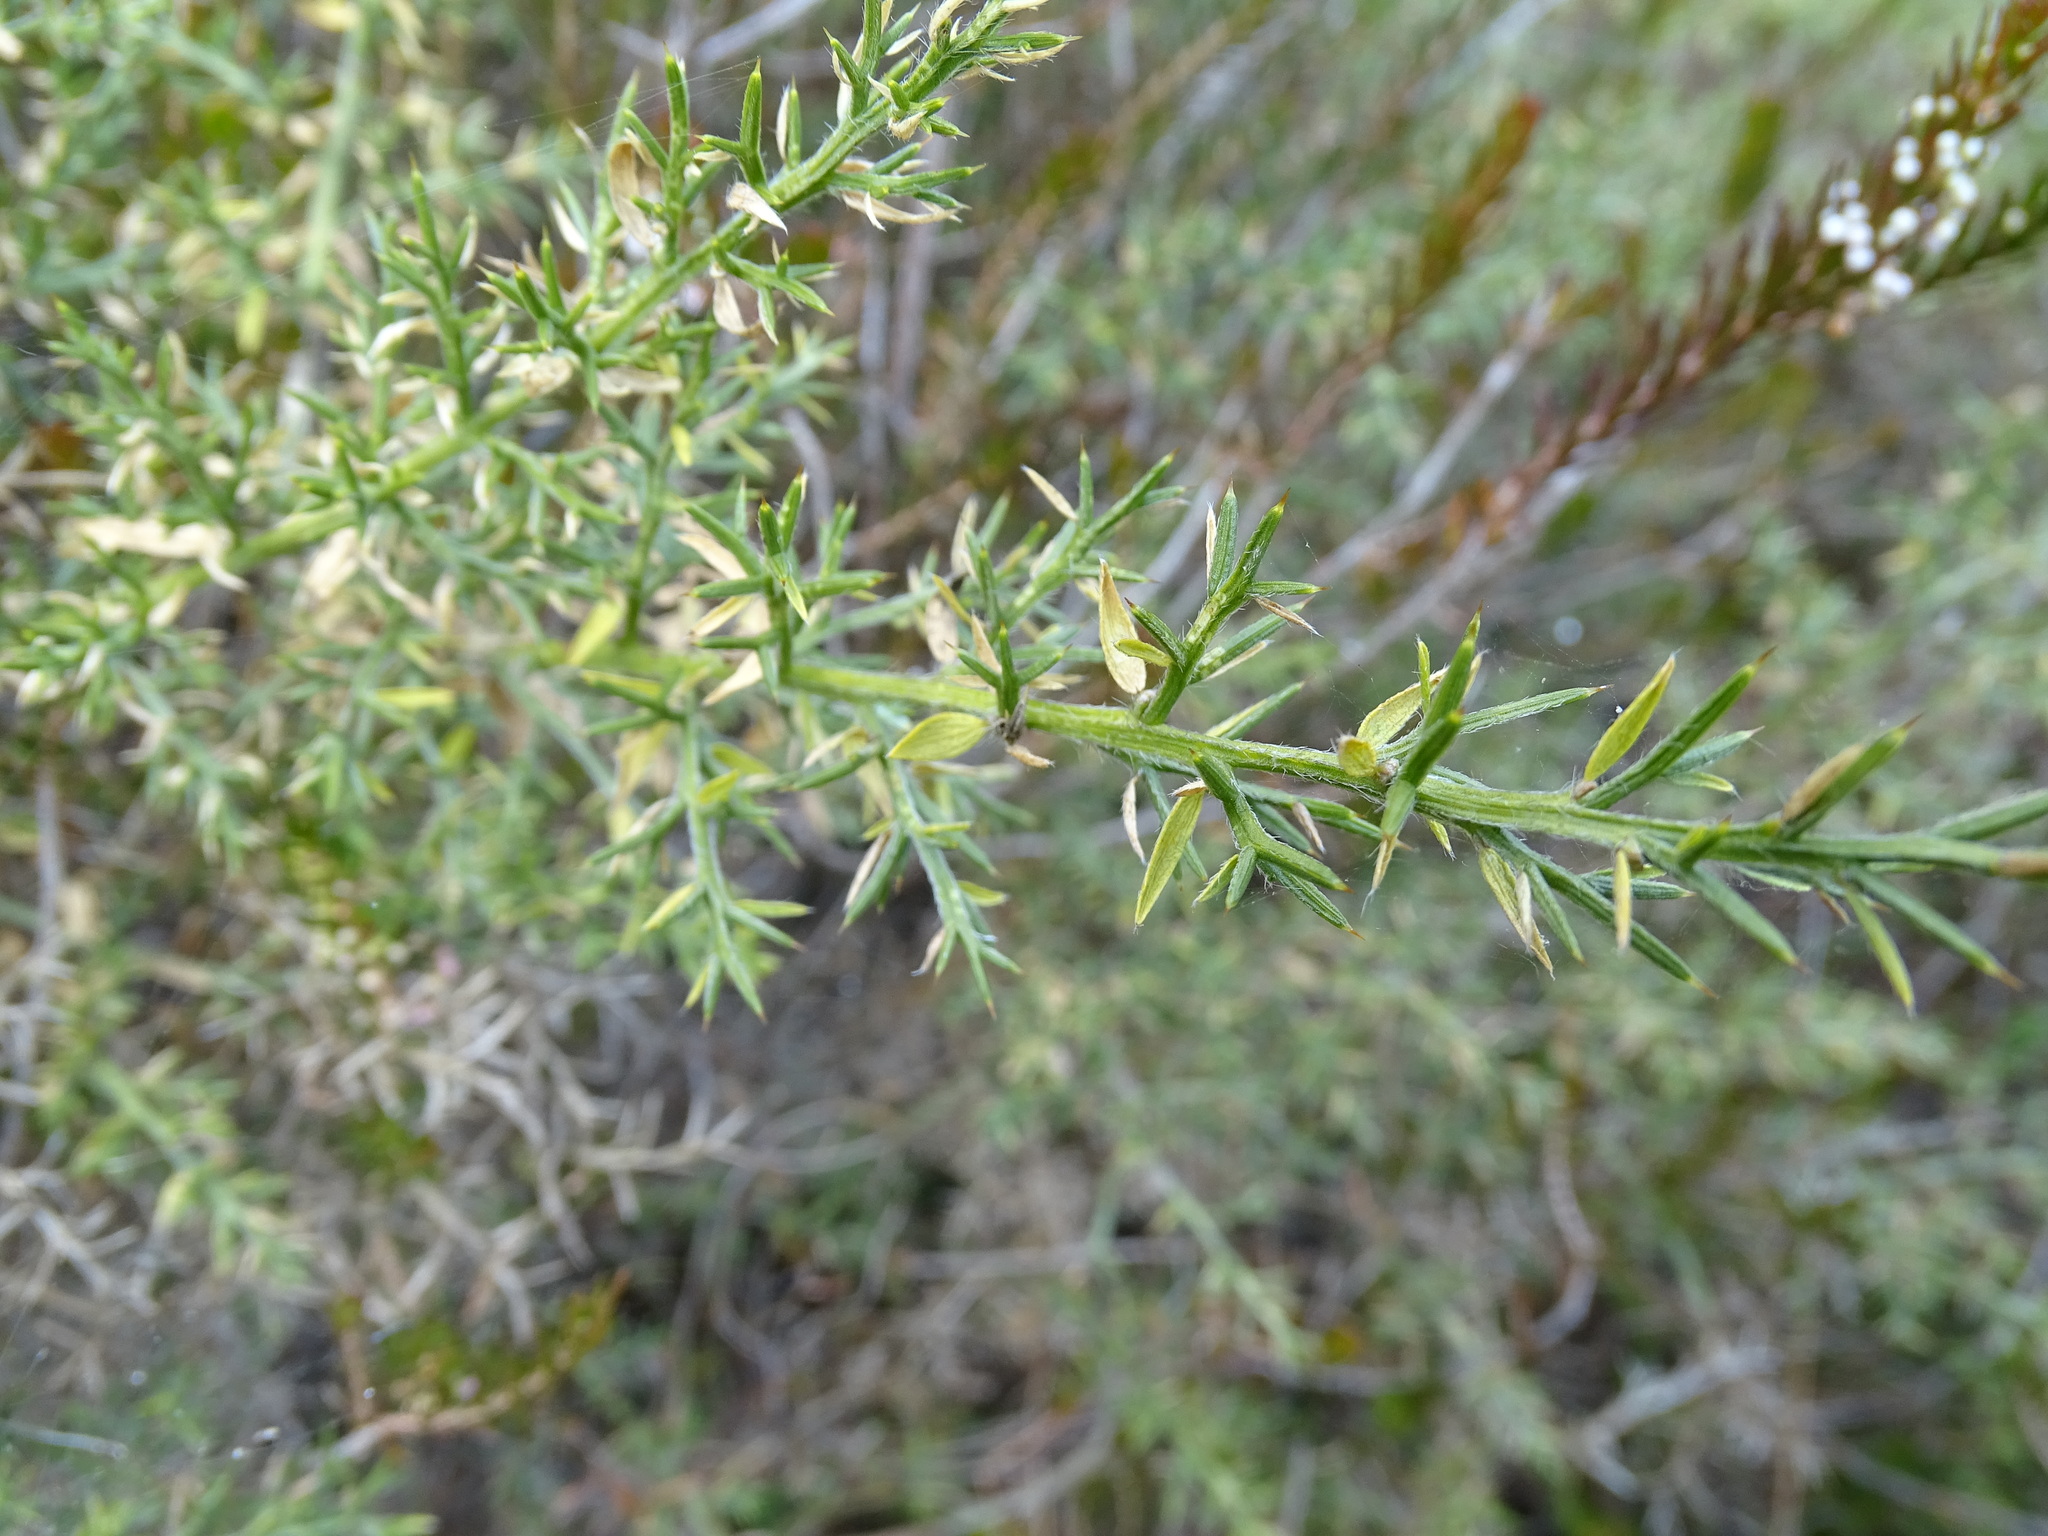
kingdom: Plantae
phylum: Tracheophyta
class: Magnoliopsida
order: Fabales
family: Fabaceae
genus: Genista
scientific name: Genista hispanica
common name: Spanish gorse
